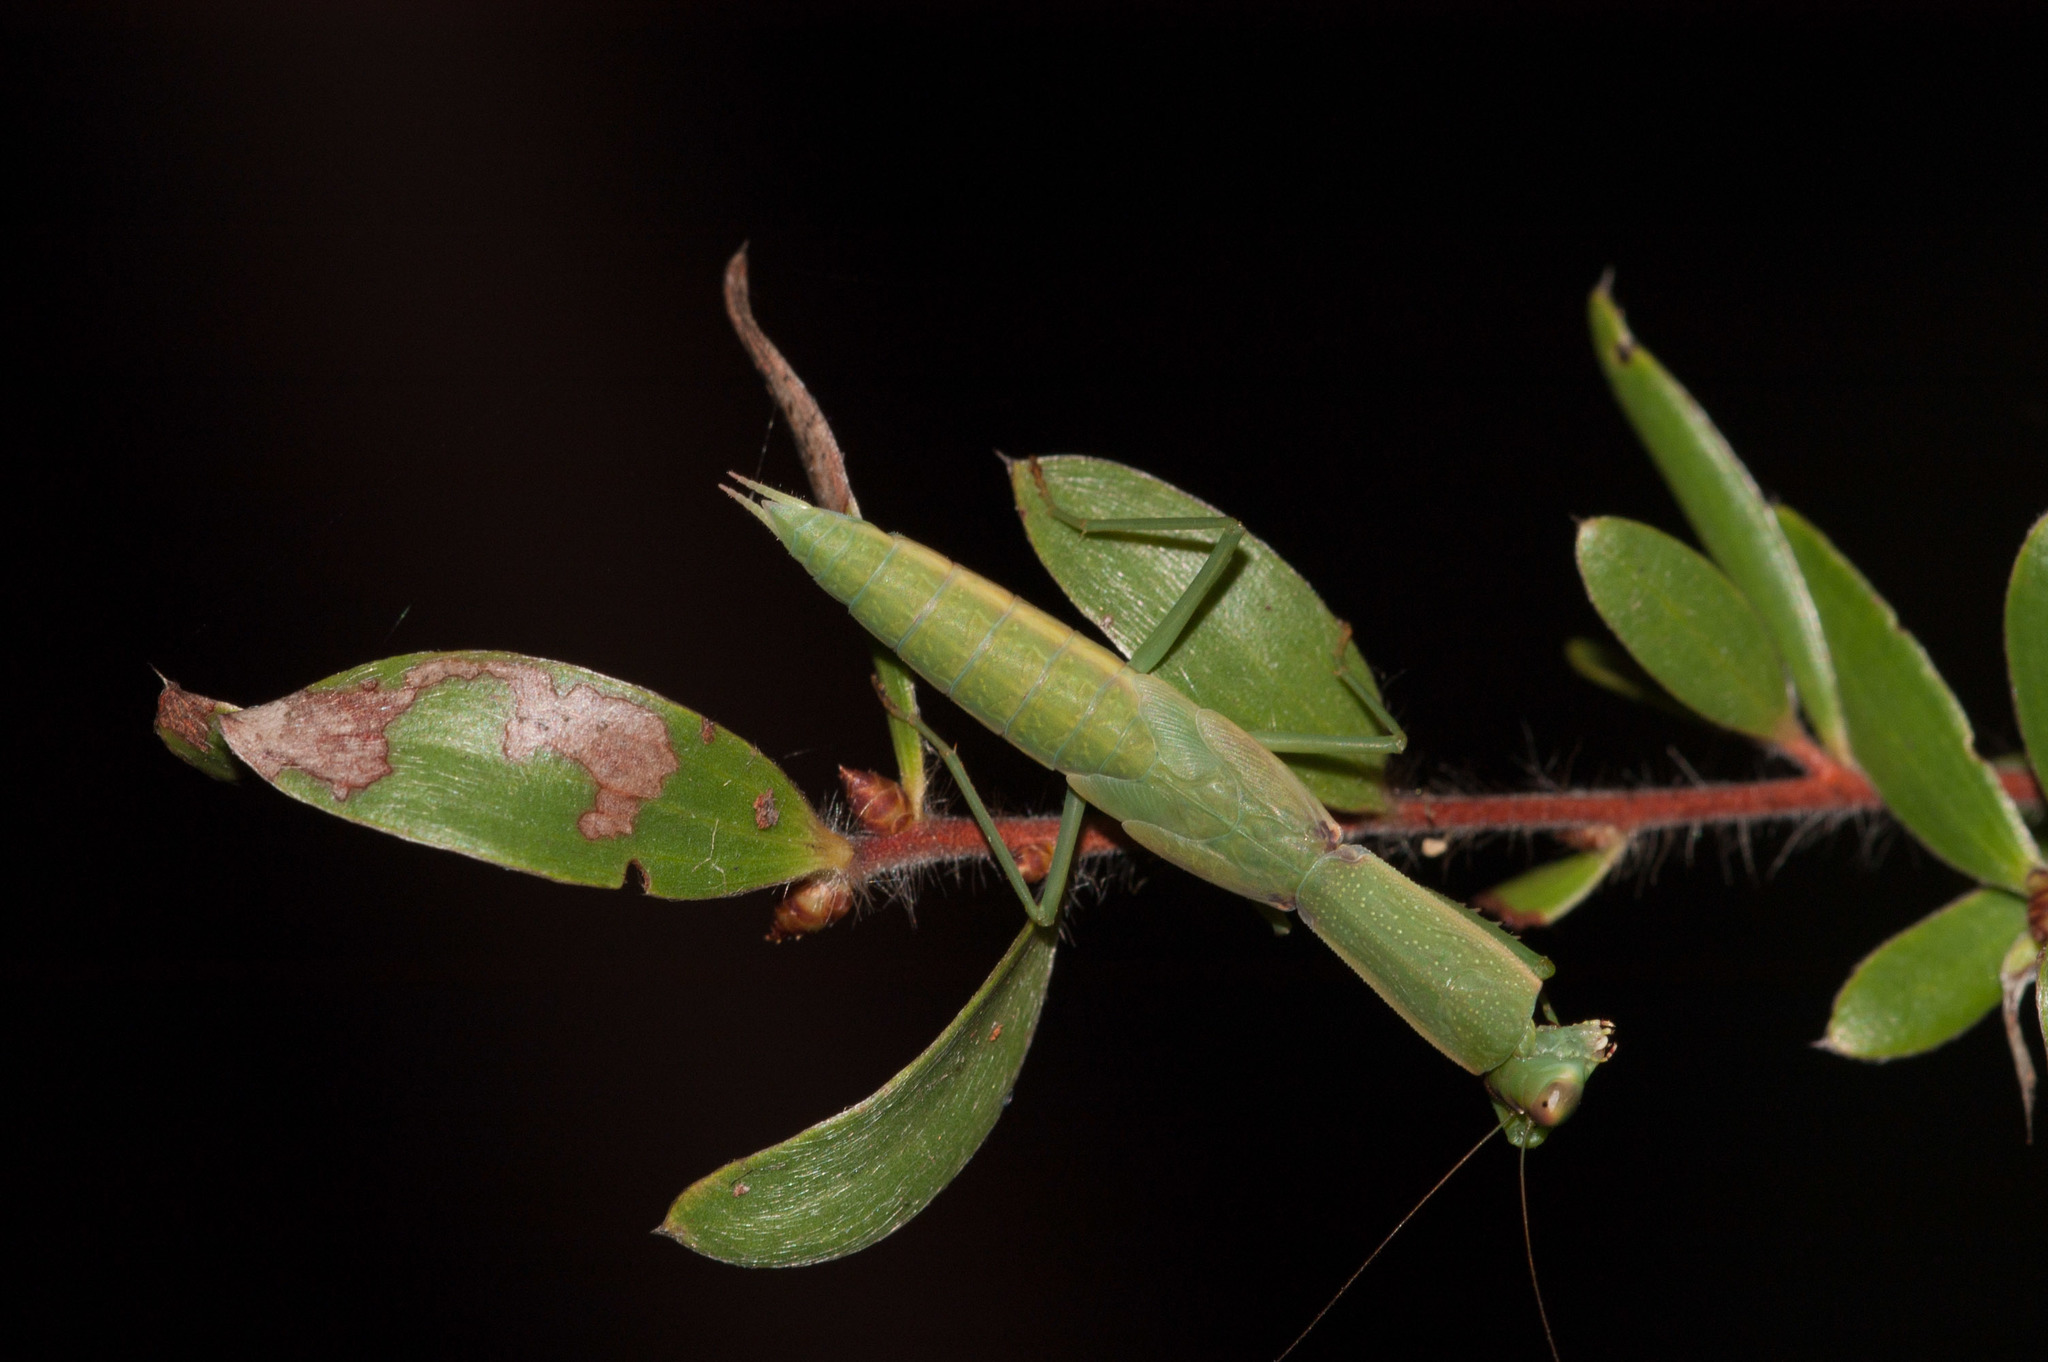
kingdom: Animalia
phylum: Arthropoda
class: Insecta
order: Mantodea
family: Mantidae
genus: Orthodera
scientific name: Orthodera ministralis
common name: Mantis
